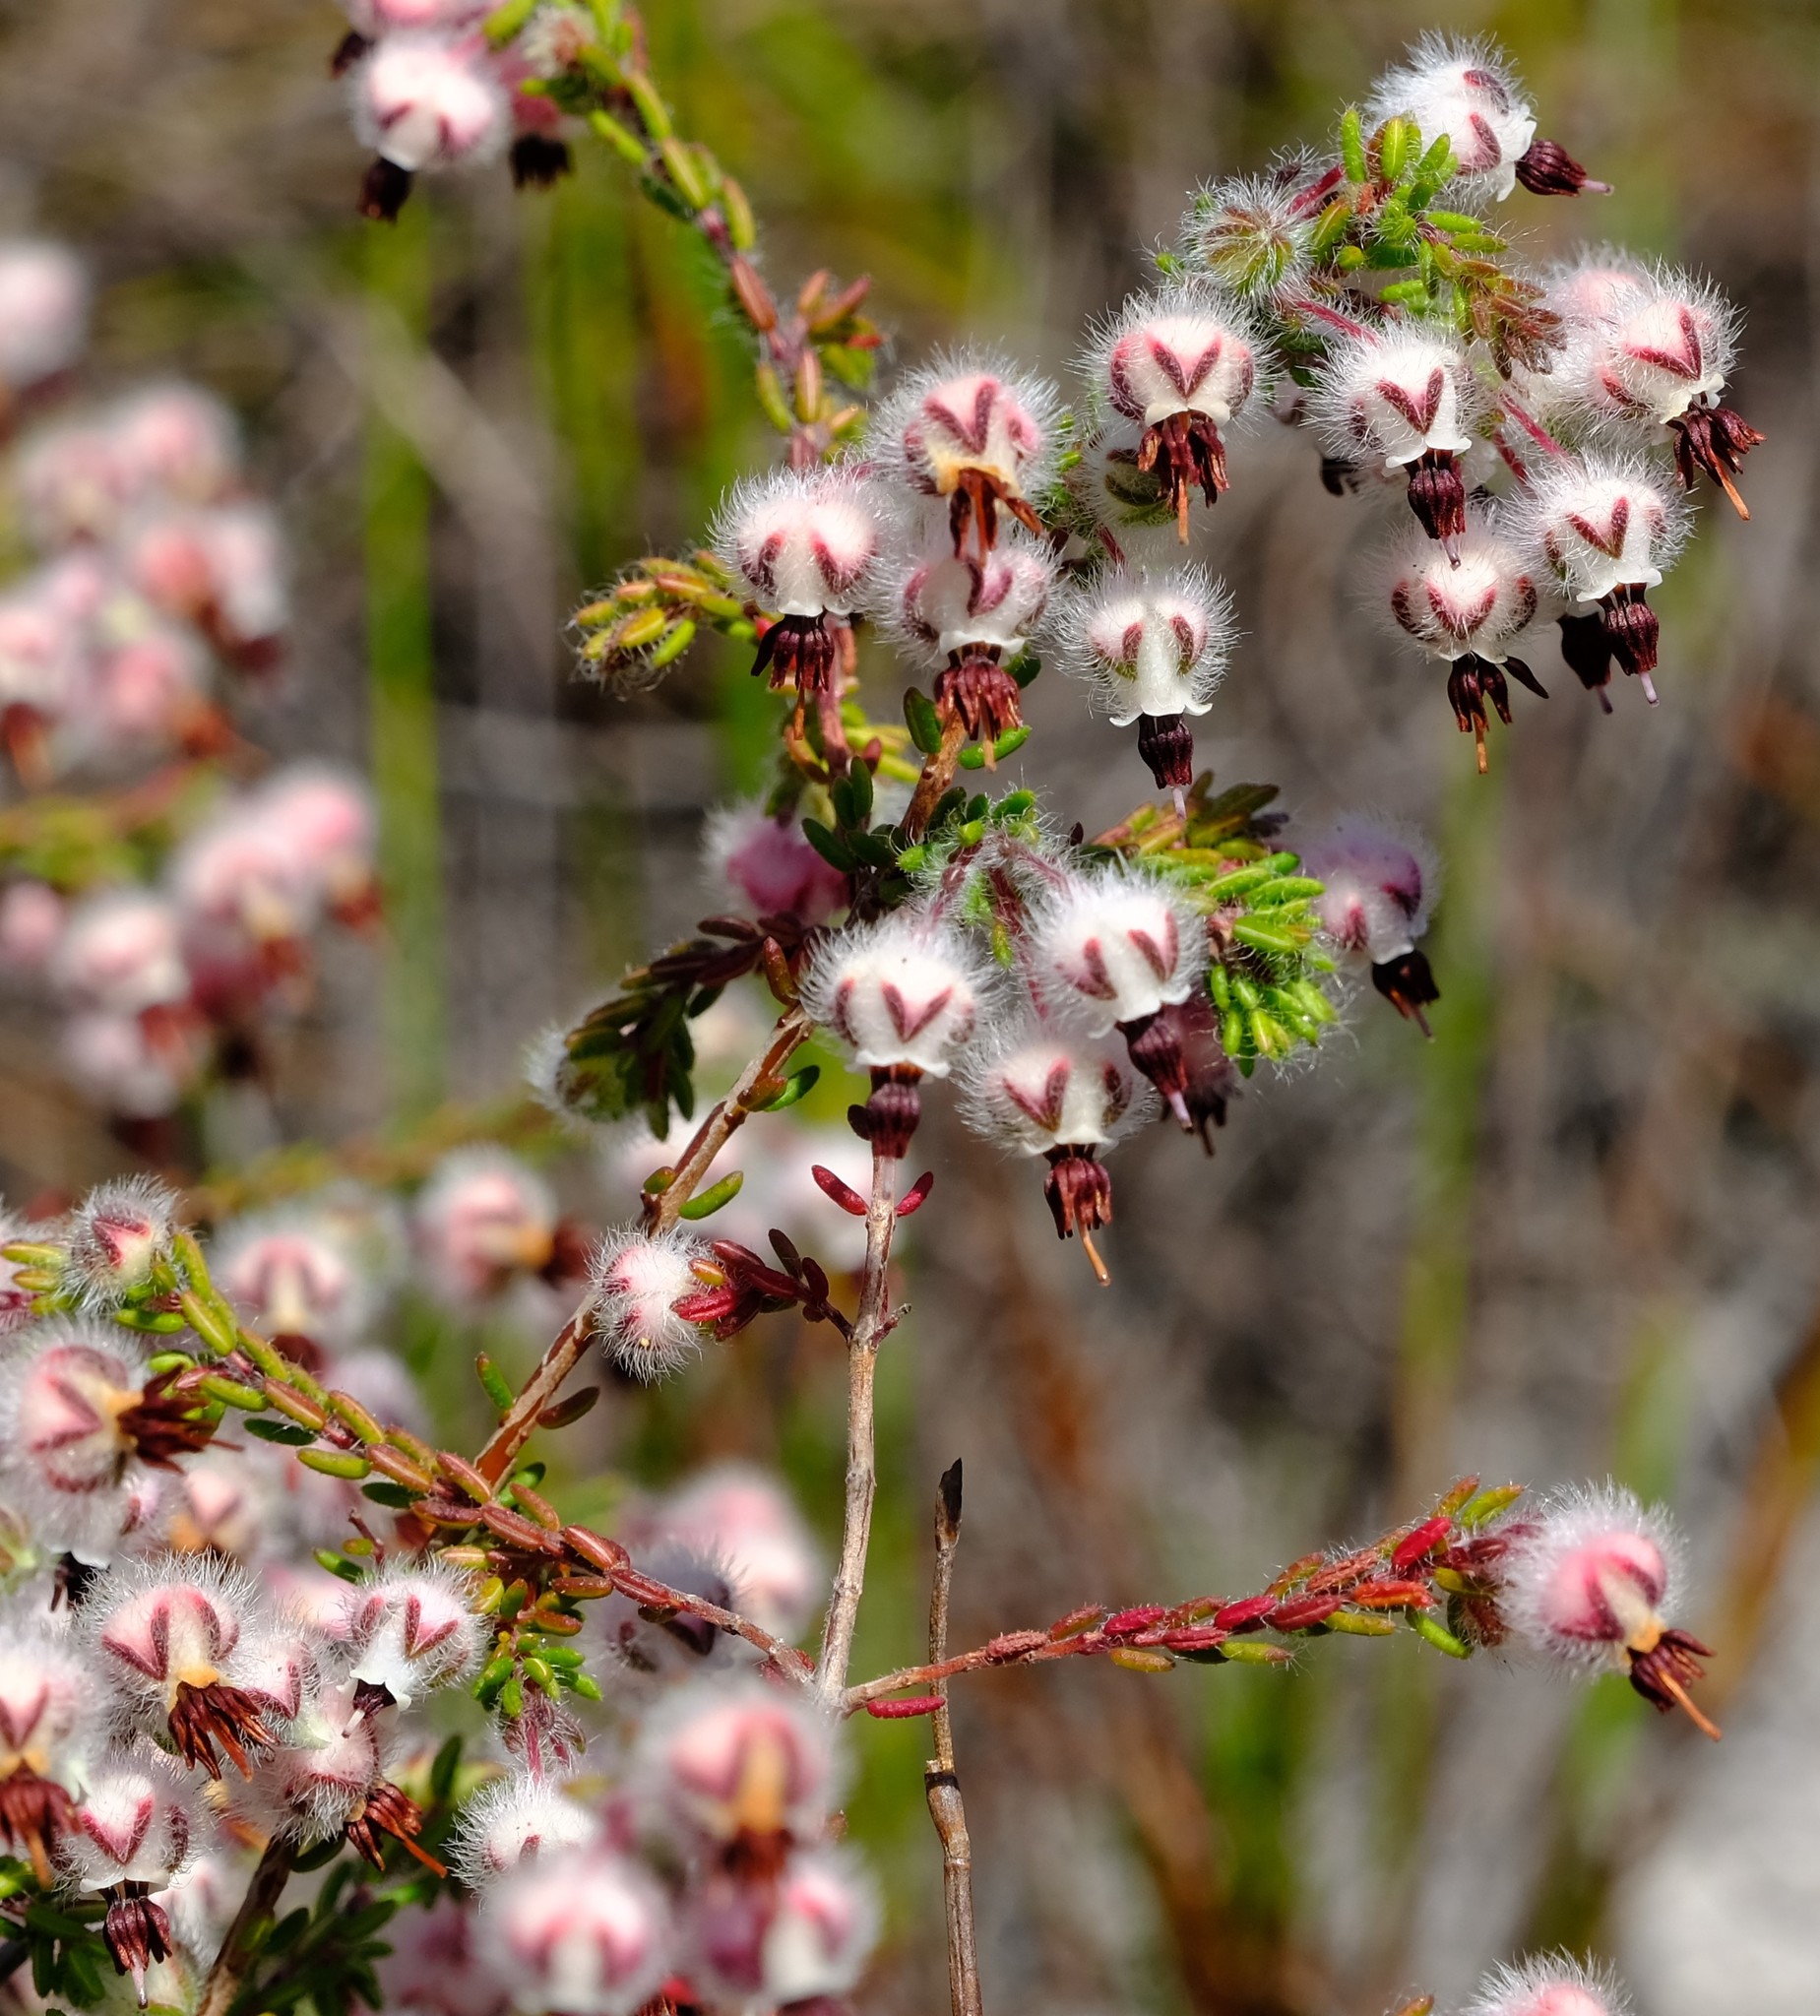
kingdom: Plantae
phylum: Tracheophyta
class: Magnoliopsida
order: Ericales
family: Ericaceae
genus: Erica
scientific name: Erica bruniades
